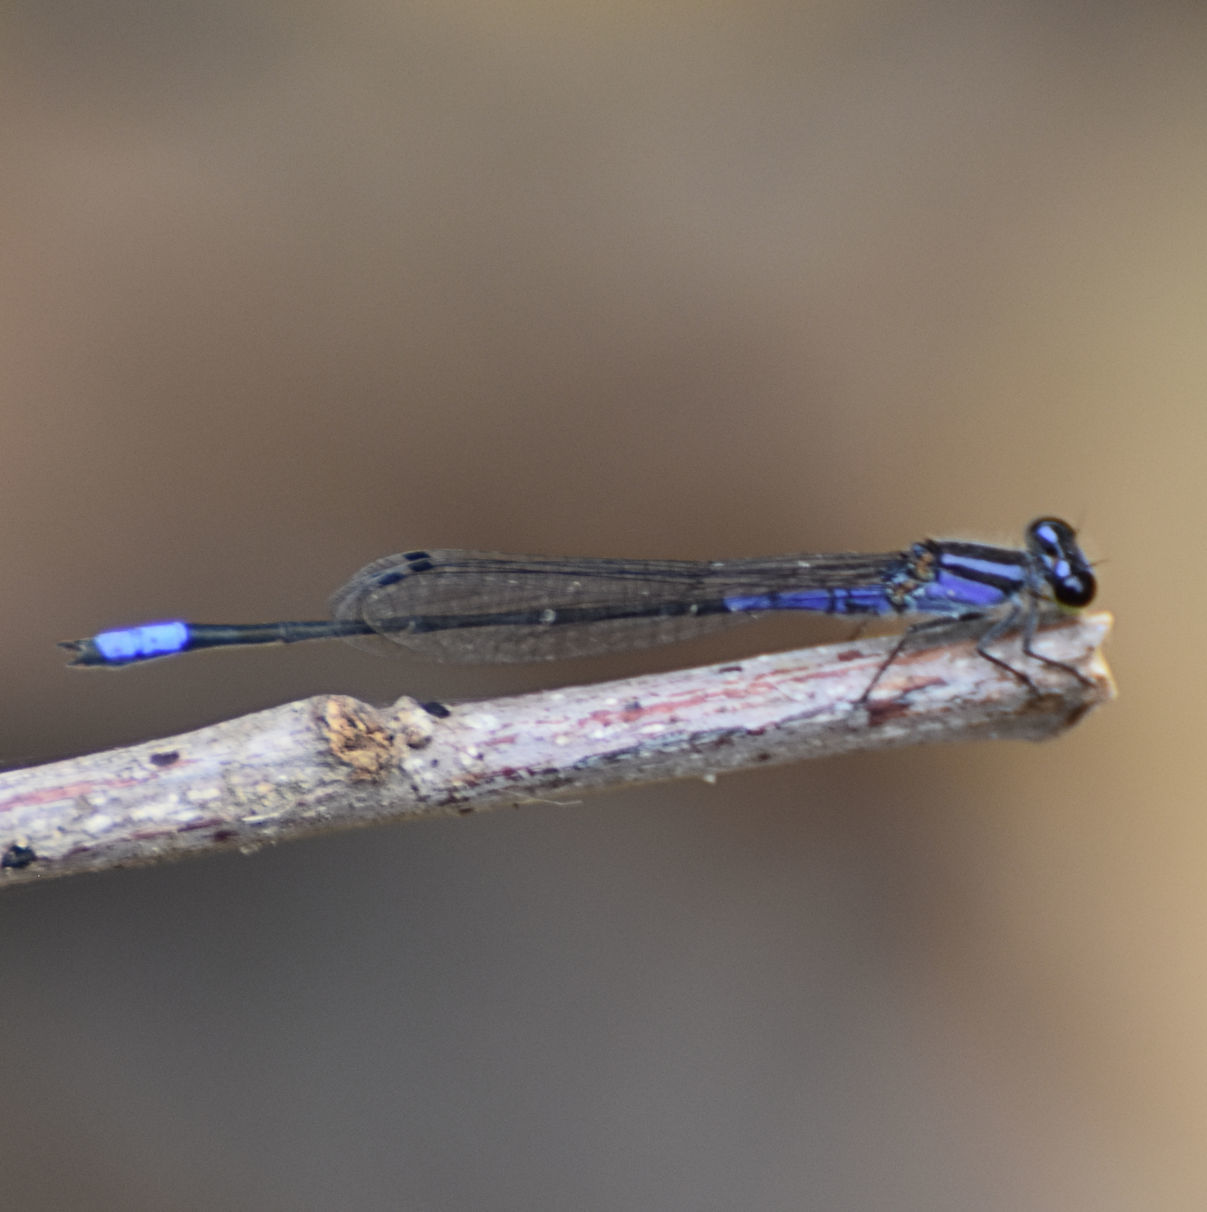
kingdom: Animalia
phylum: Arthropoda
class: Insecta
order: Odonata
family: Coenagrionidae
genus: Enallagma
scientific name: Enallagma coecum
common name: Antillean bluet
